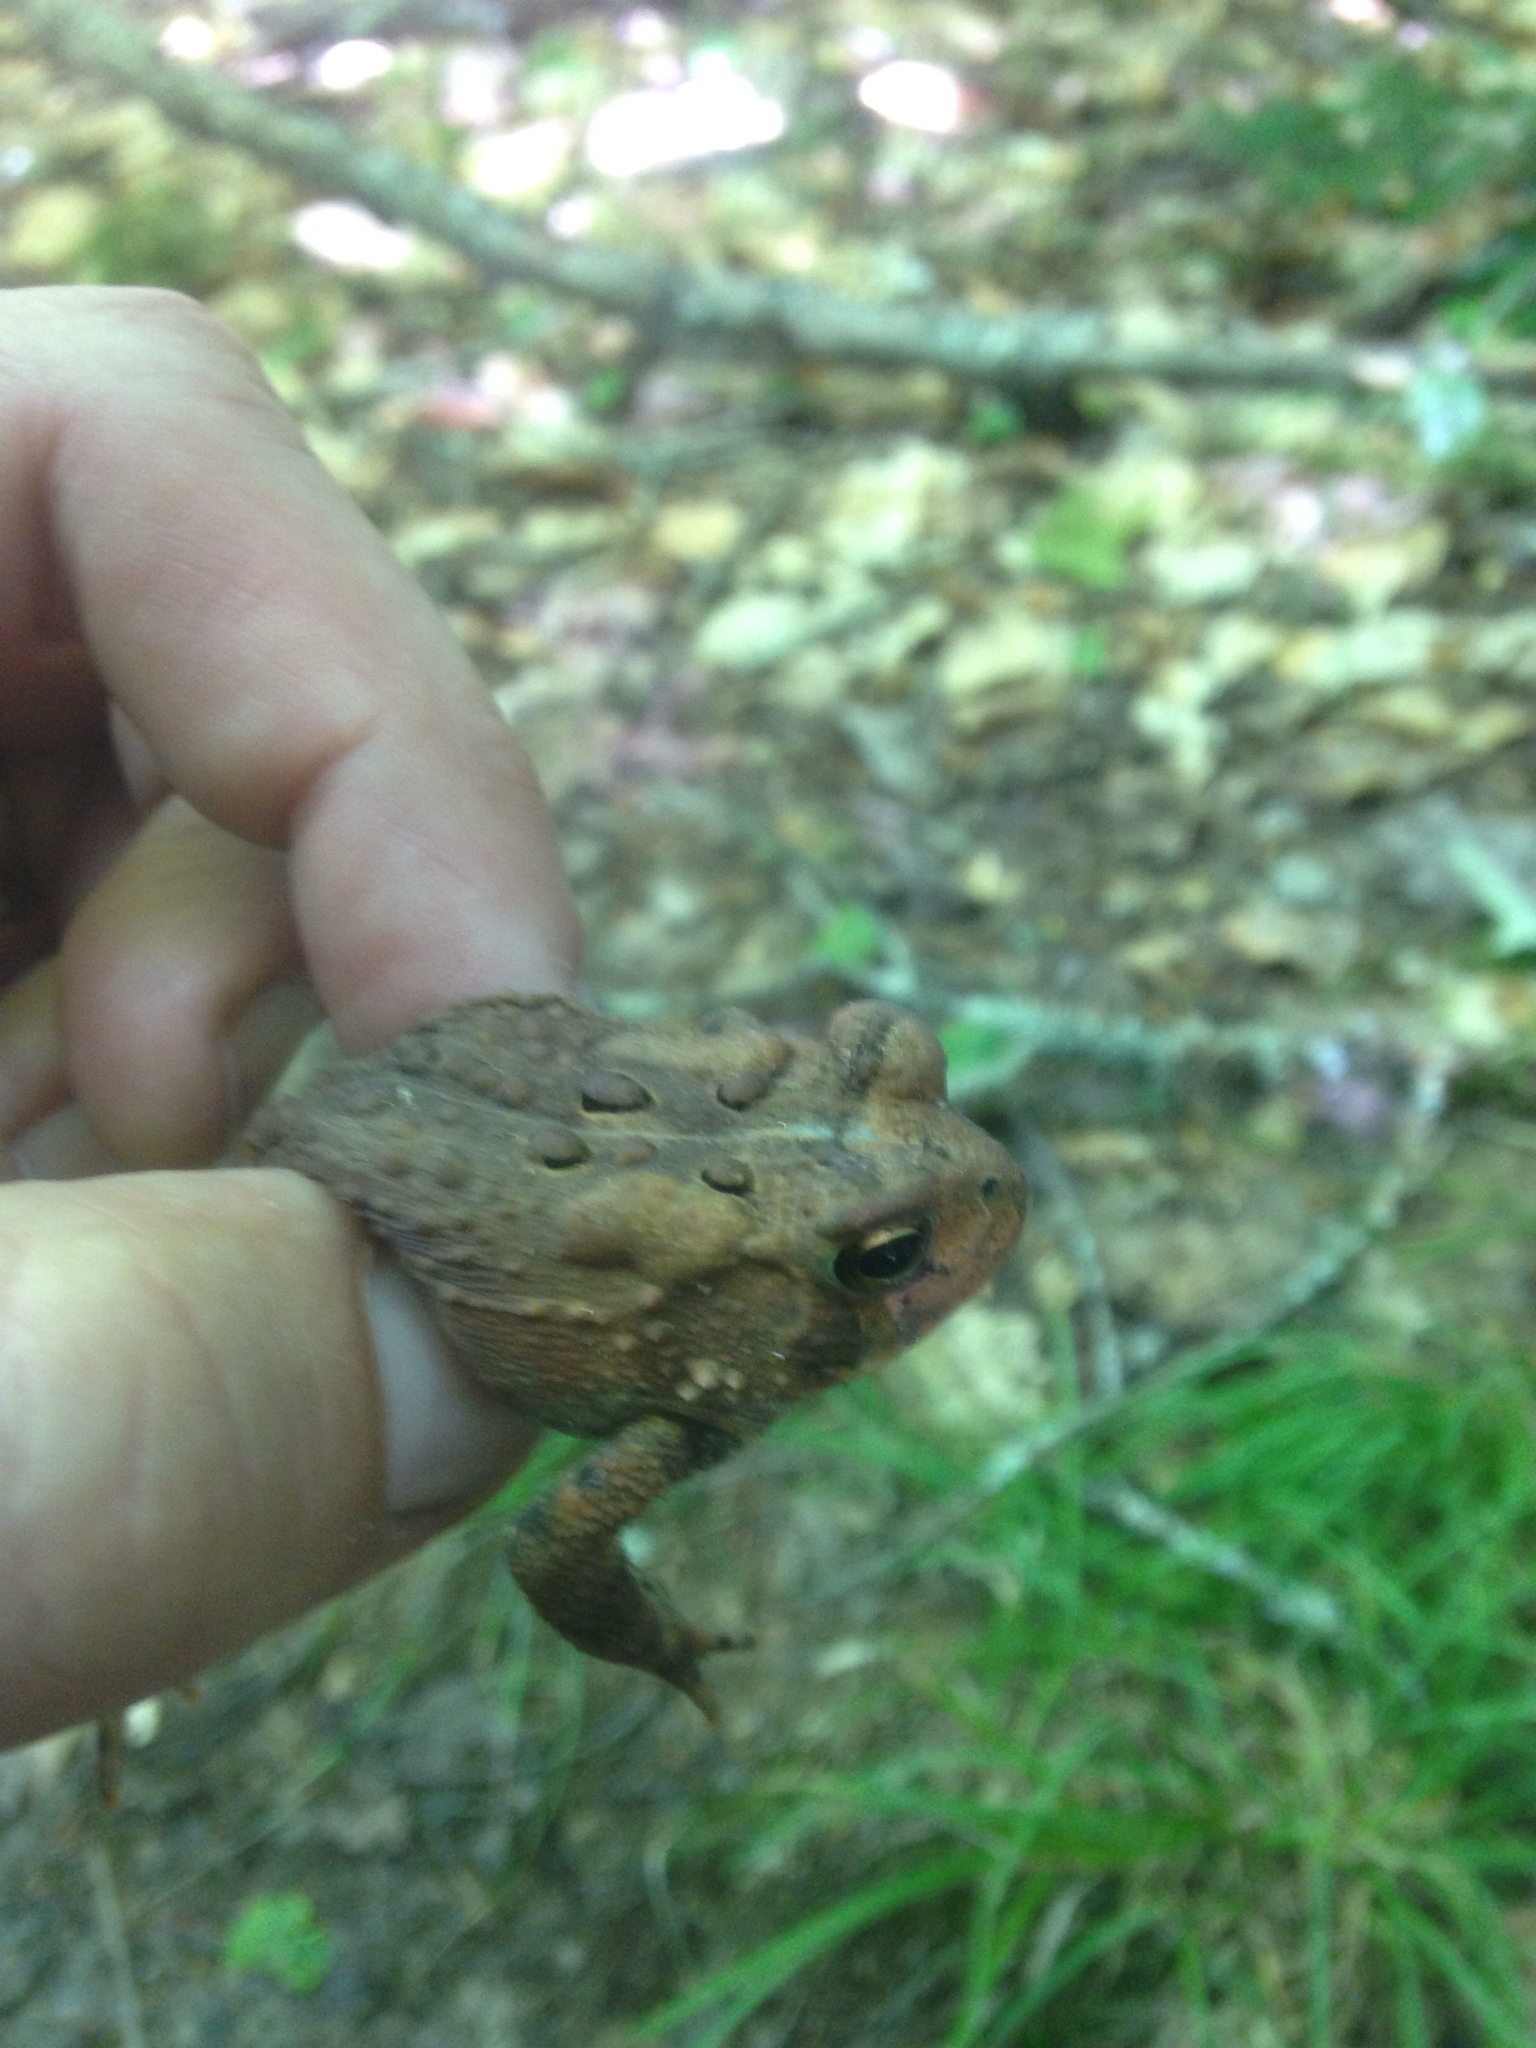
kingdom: Animalia
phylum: Chordata
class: Amphibia
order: Anura
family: Bufonidae
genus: Anaxyrus
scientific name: Anaxyrus americanus
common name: American toad
